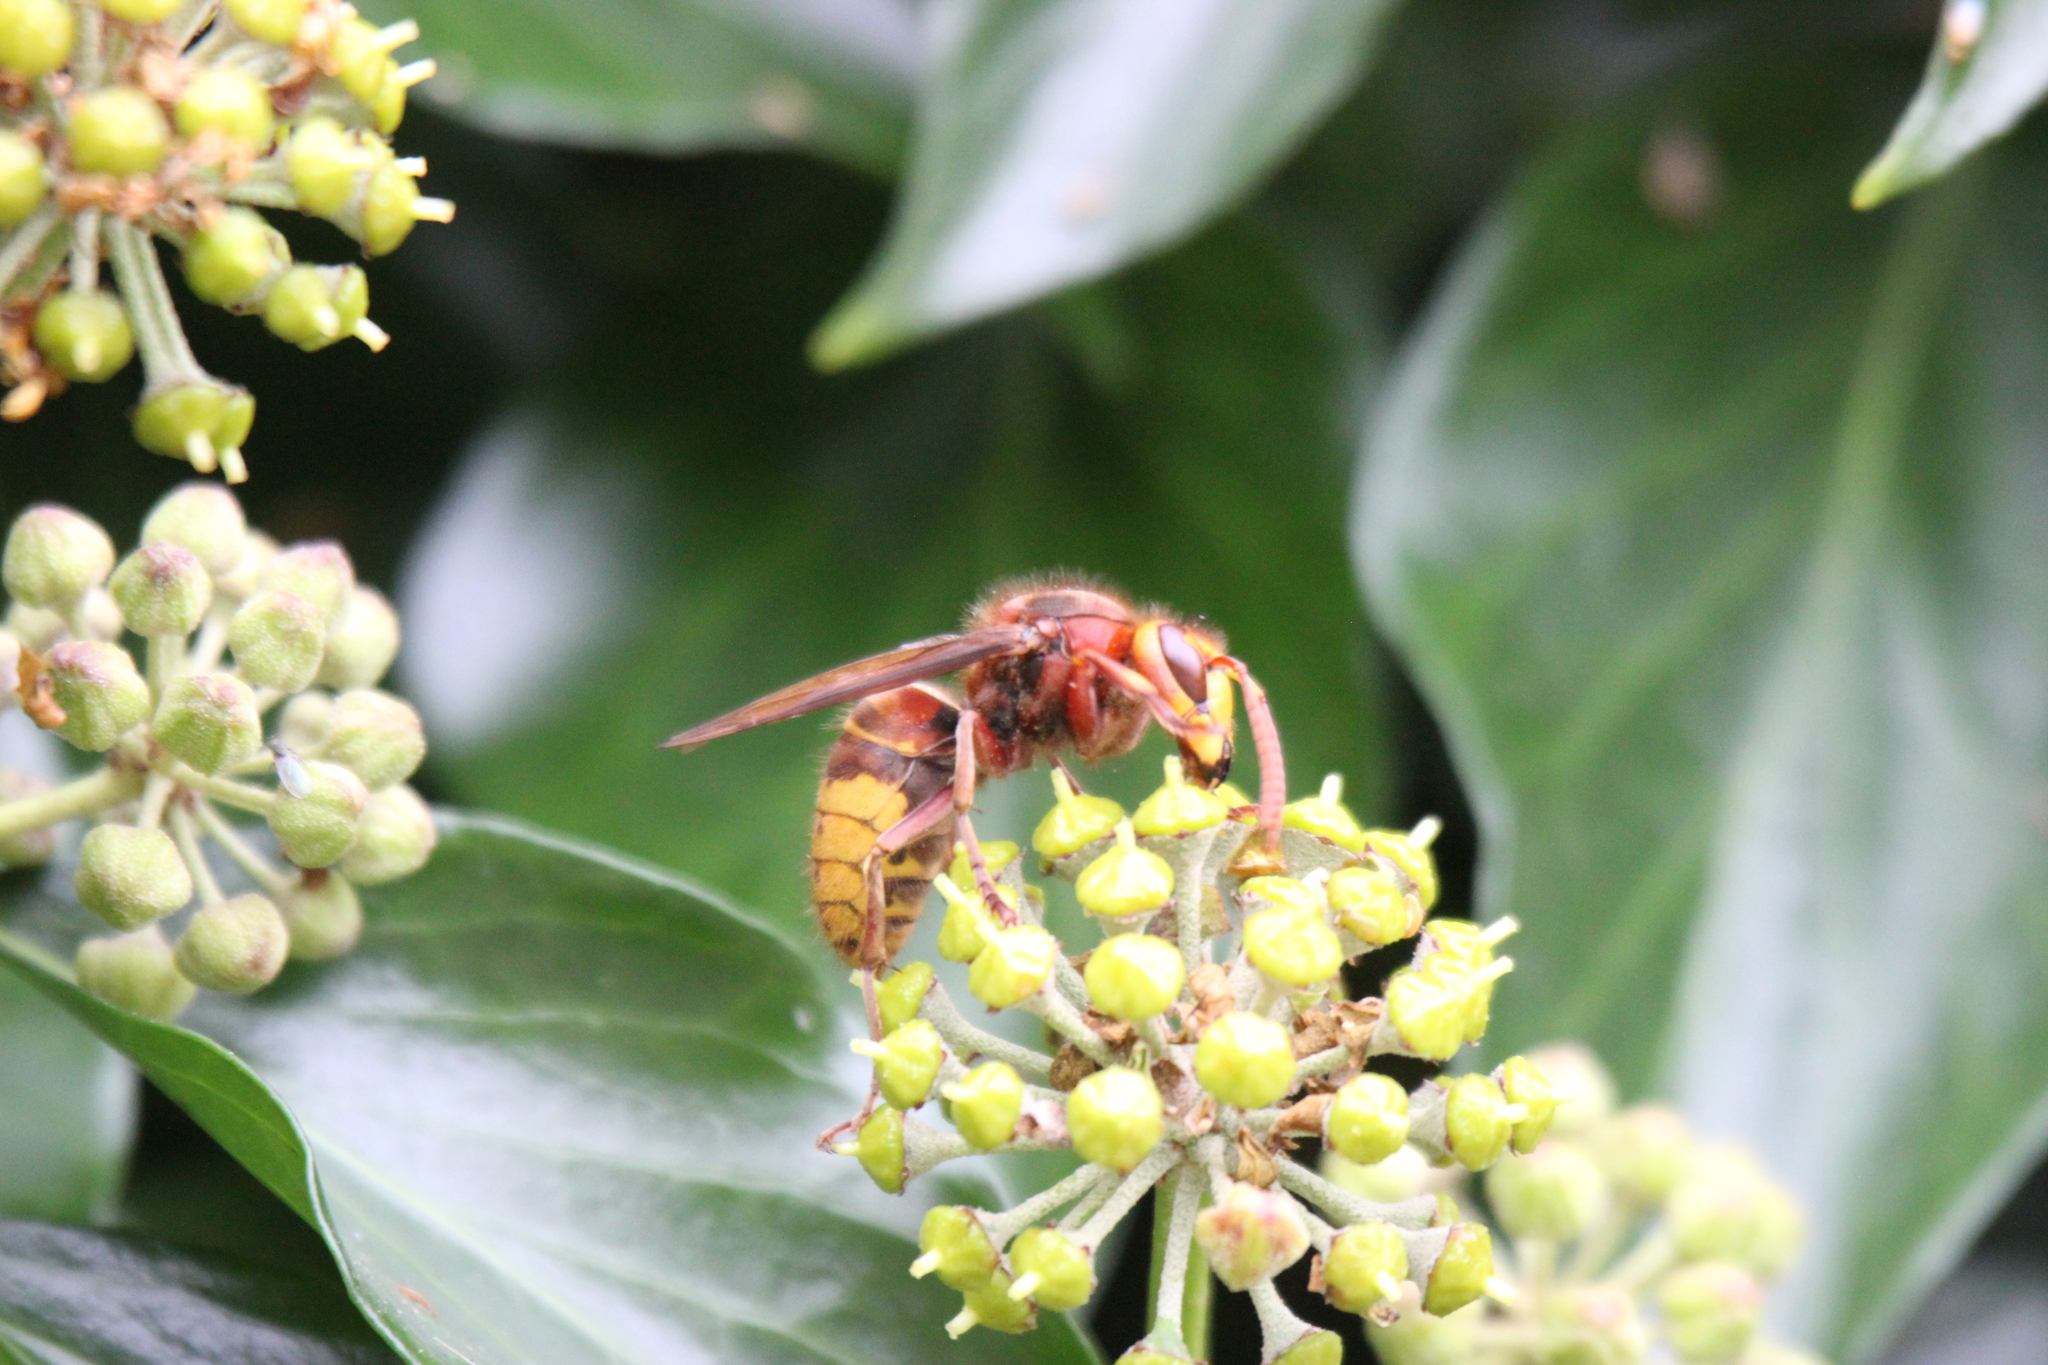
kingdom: Animalia
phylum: Arthropoda
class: Insecta
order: Hymenoptera
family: Vespidae
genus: Vespa
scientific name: Vespa crabro
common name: Hornet
